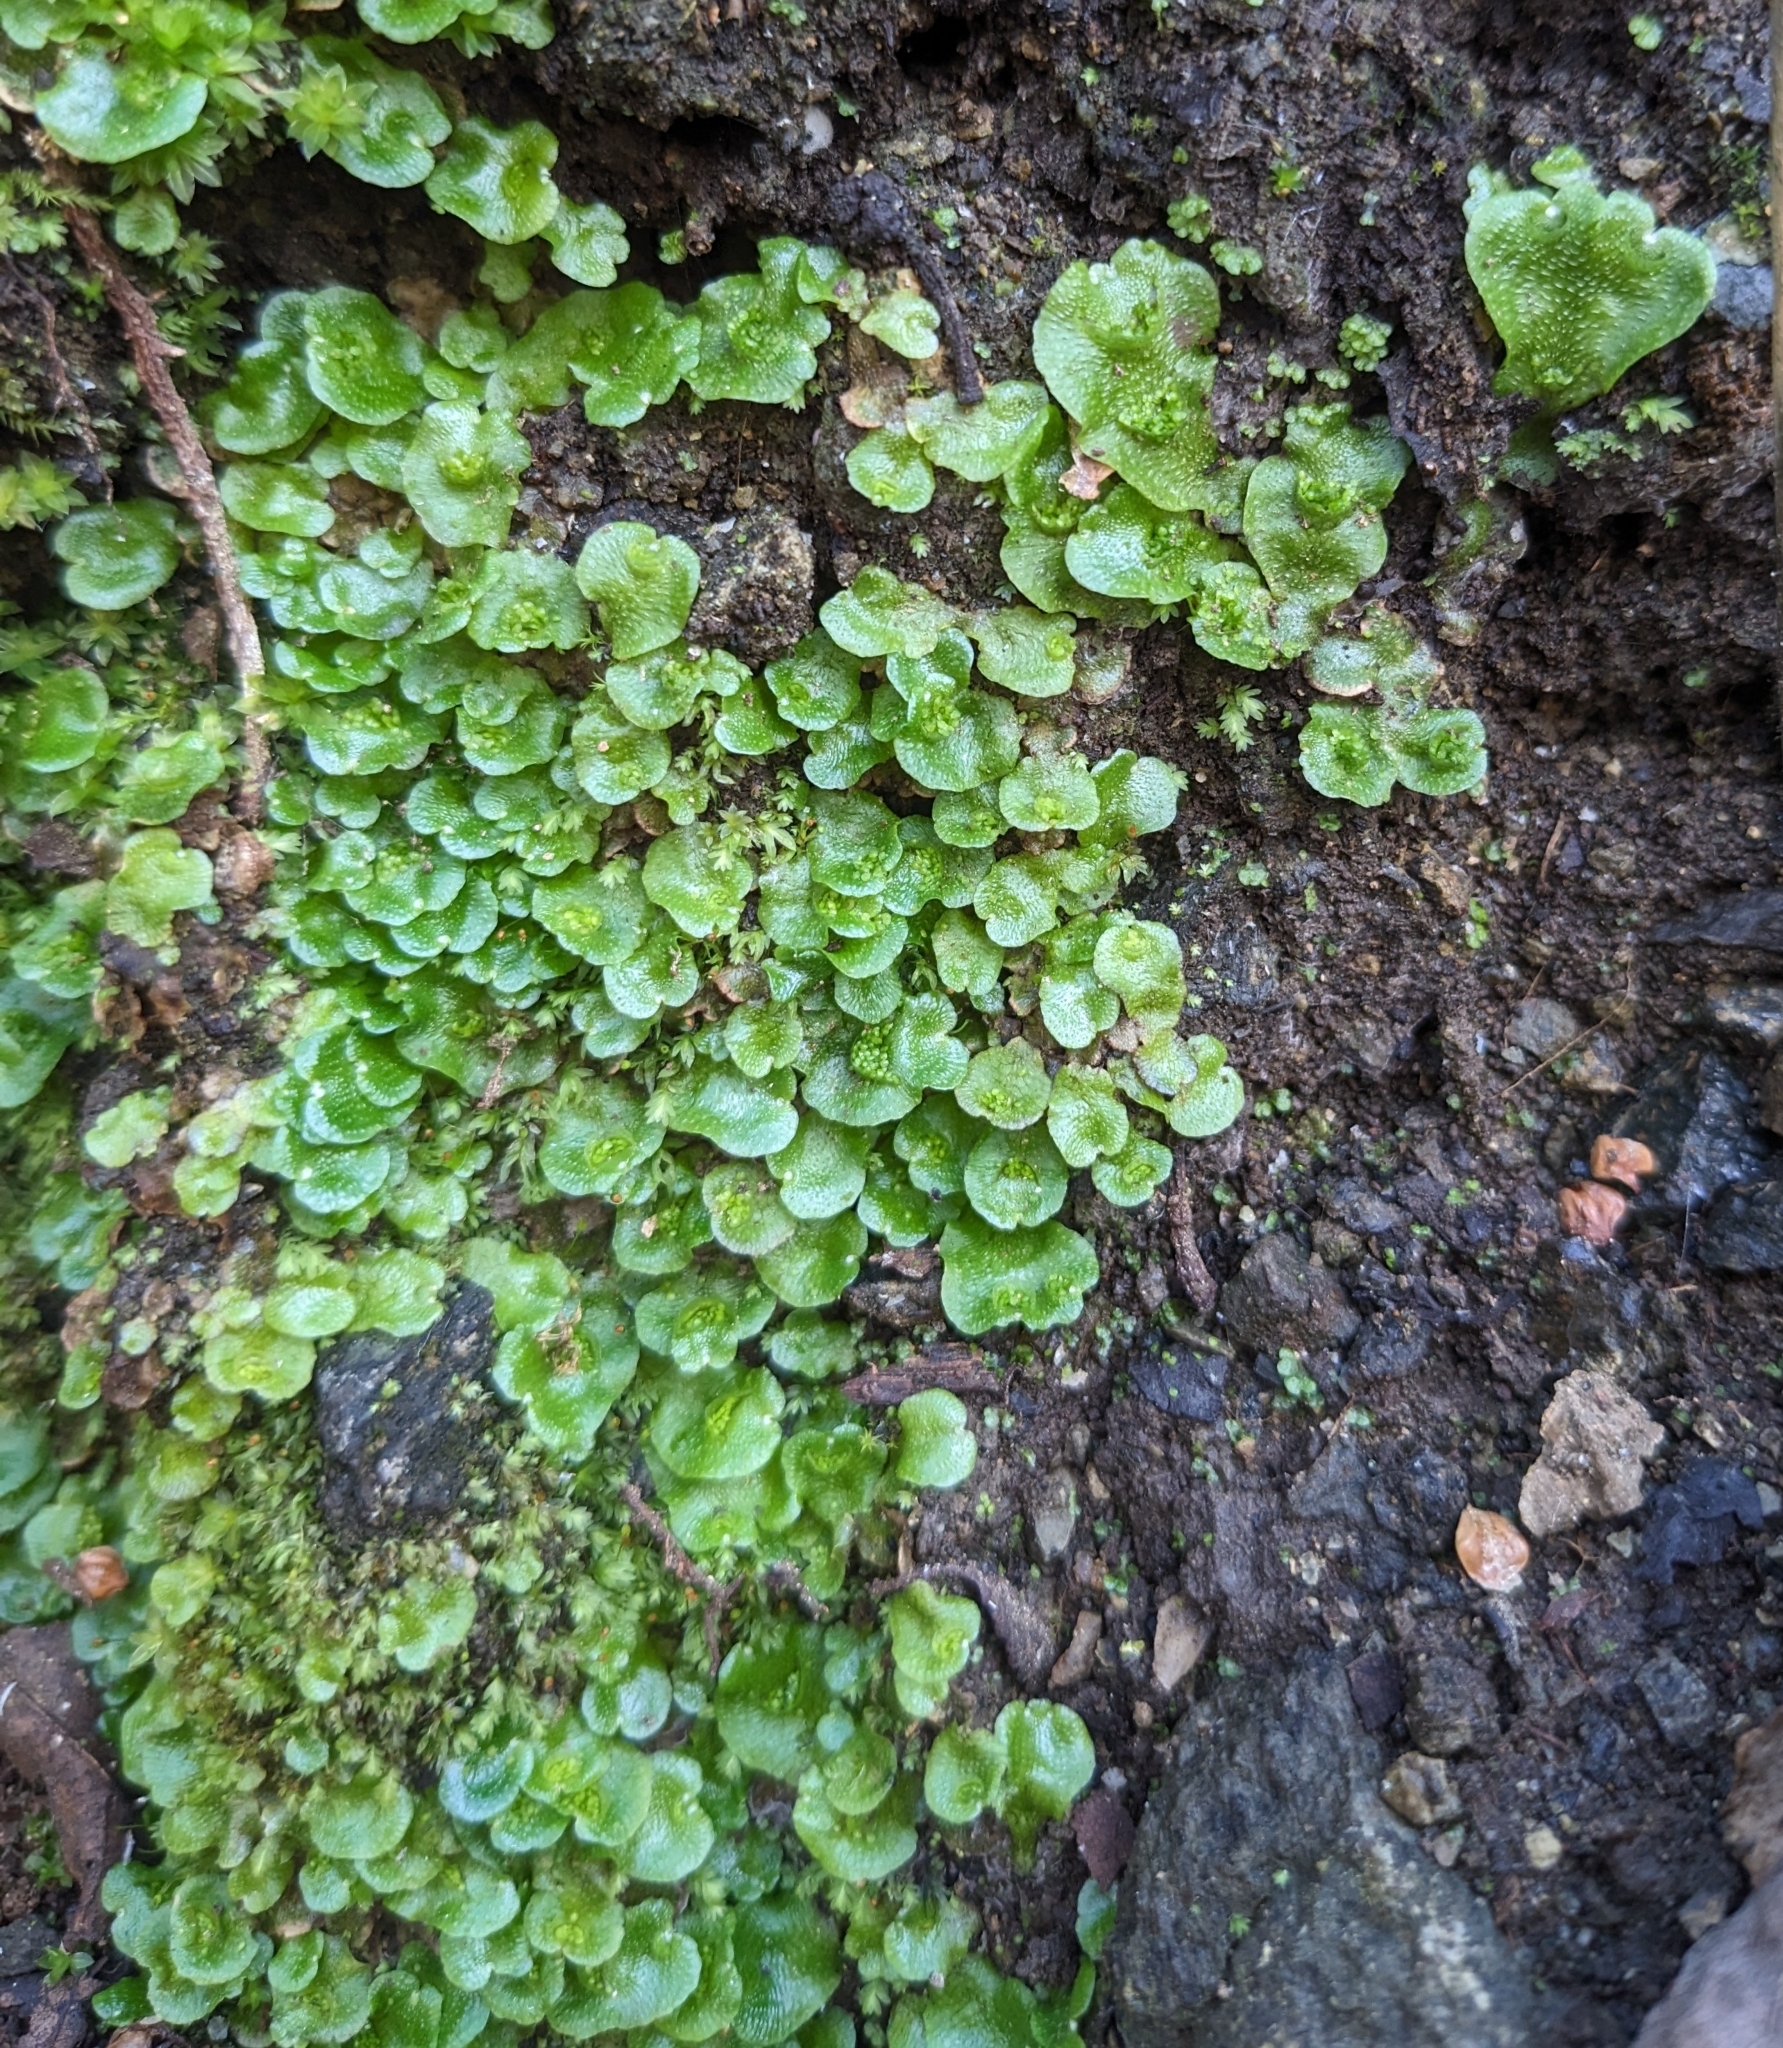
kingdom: Plantae
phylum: Marchantiophyta
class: Marchantiopsida
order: Lunulariales
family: Lunulariaceae
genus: Lunularia
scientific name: Lunularia cruciata
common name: Crescent-cup liverwort
